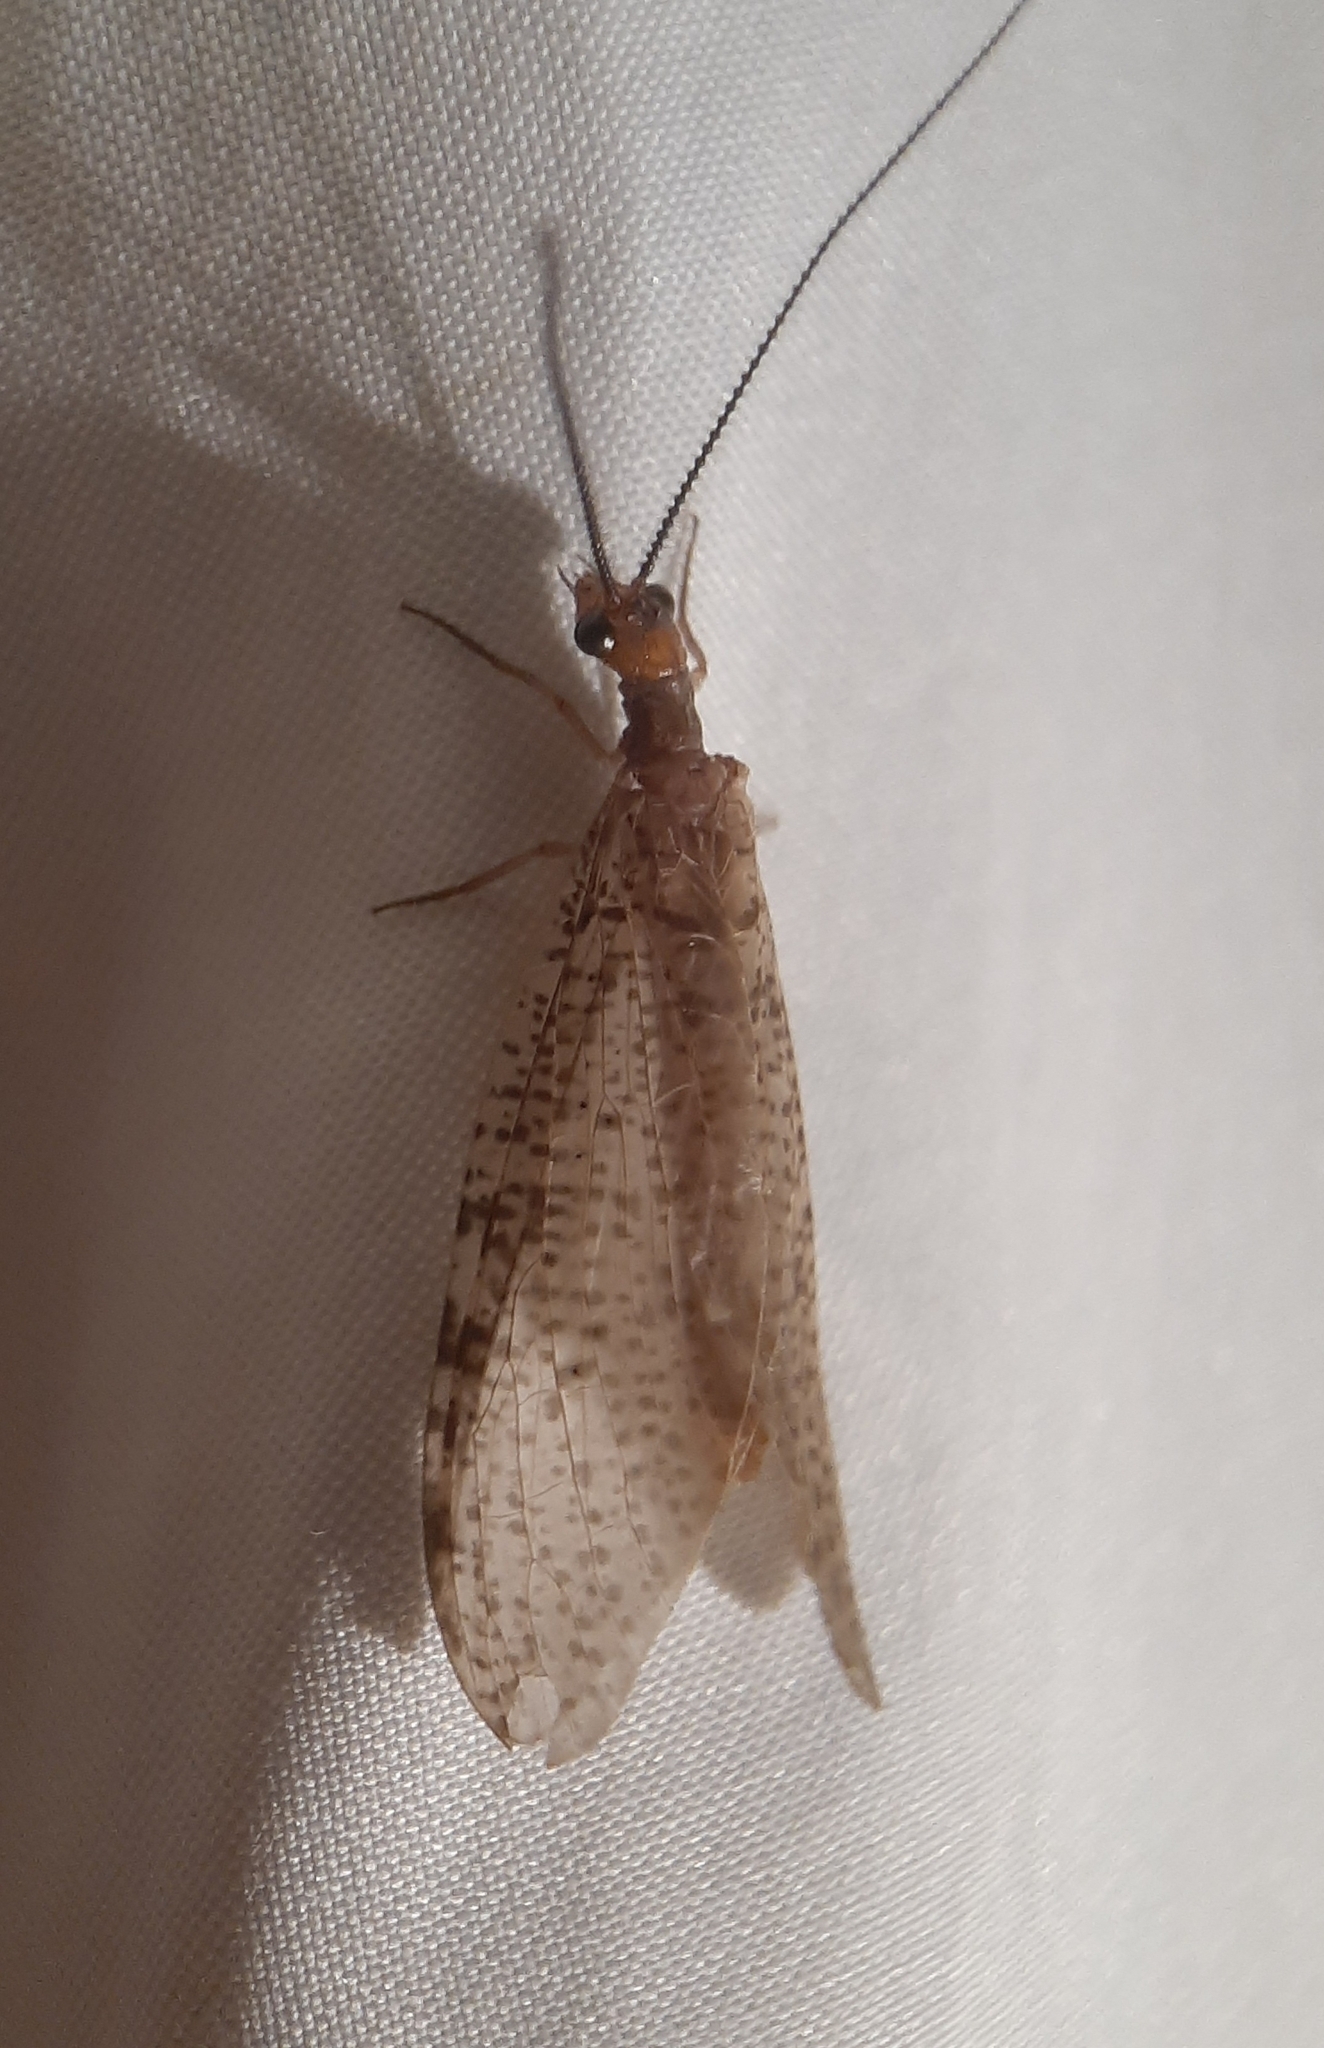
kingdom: Animalia
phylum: Arthropoda
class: Insecta
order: Megaloptera
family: Corydalidae
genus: Neohermes
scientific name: Neohermes concolor
